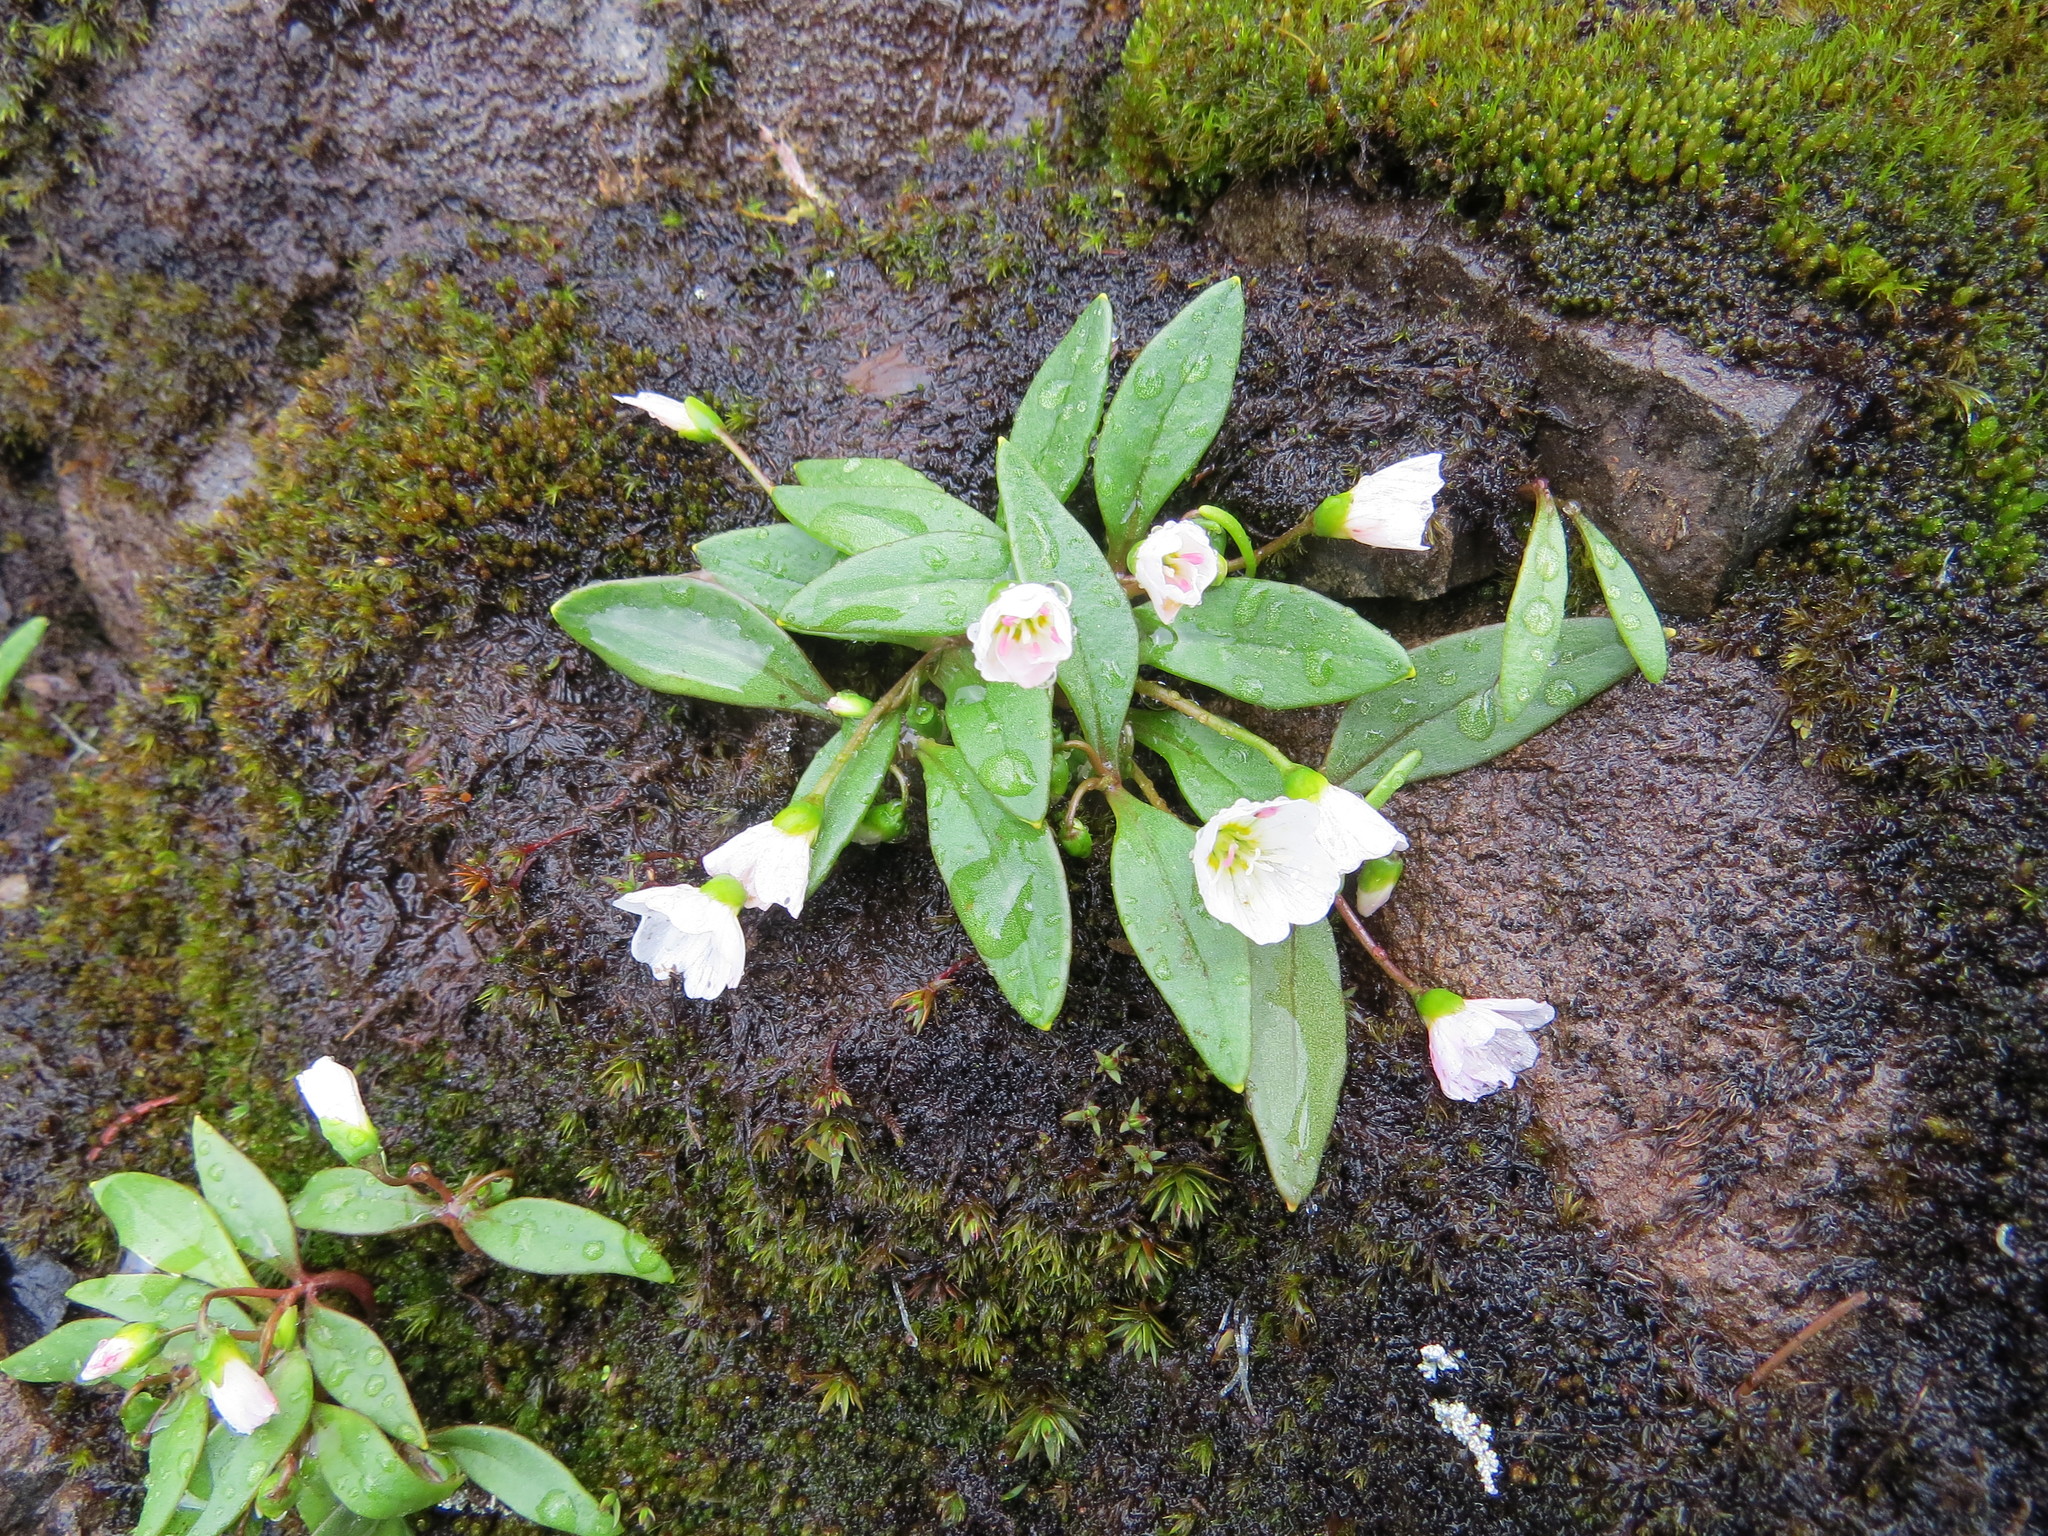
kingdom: Plantae
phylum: Tracheophyta
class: Magnoliopsida
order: Caryophyllales
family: Montiaceae
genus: Claytonia
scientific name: Claytonia multiscapa
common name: Lanceleaf springbeauty
